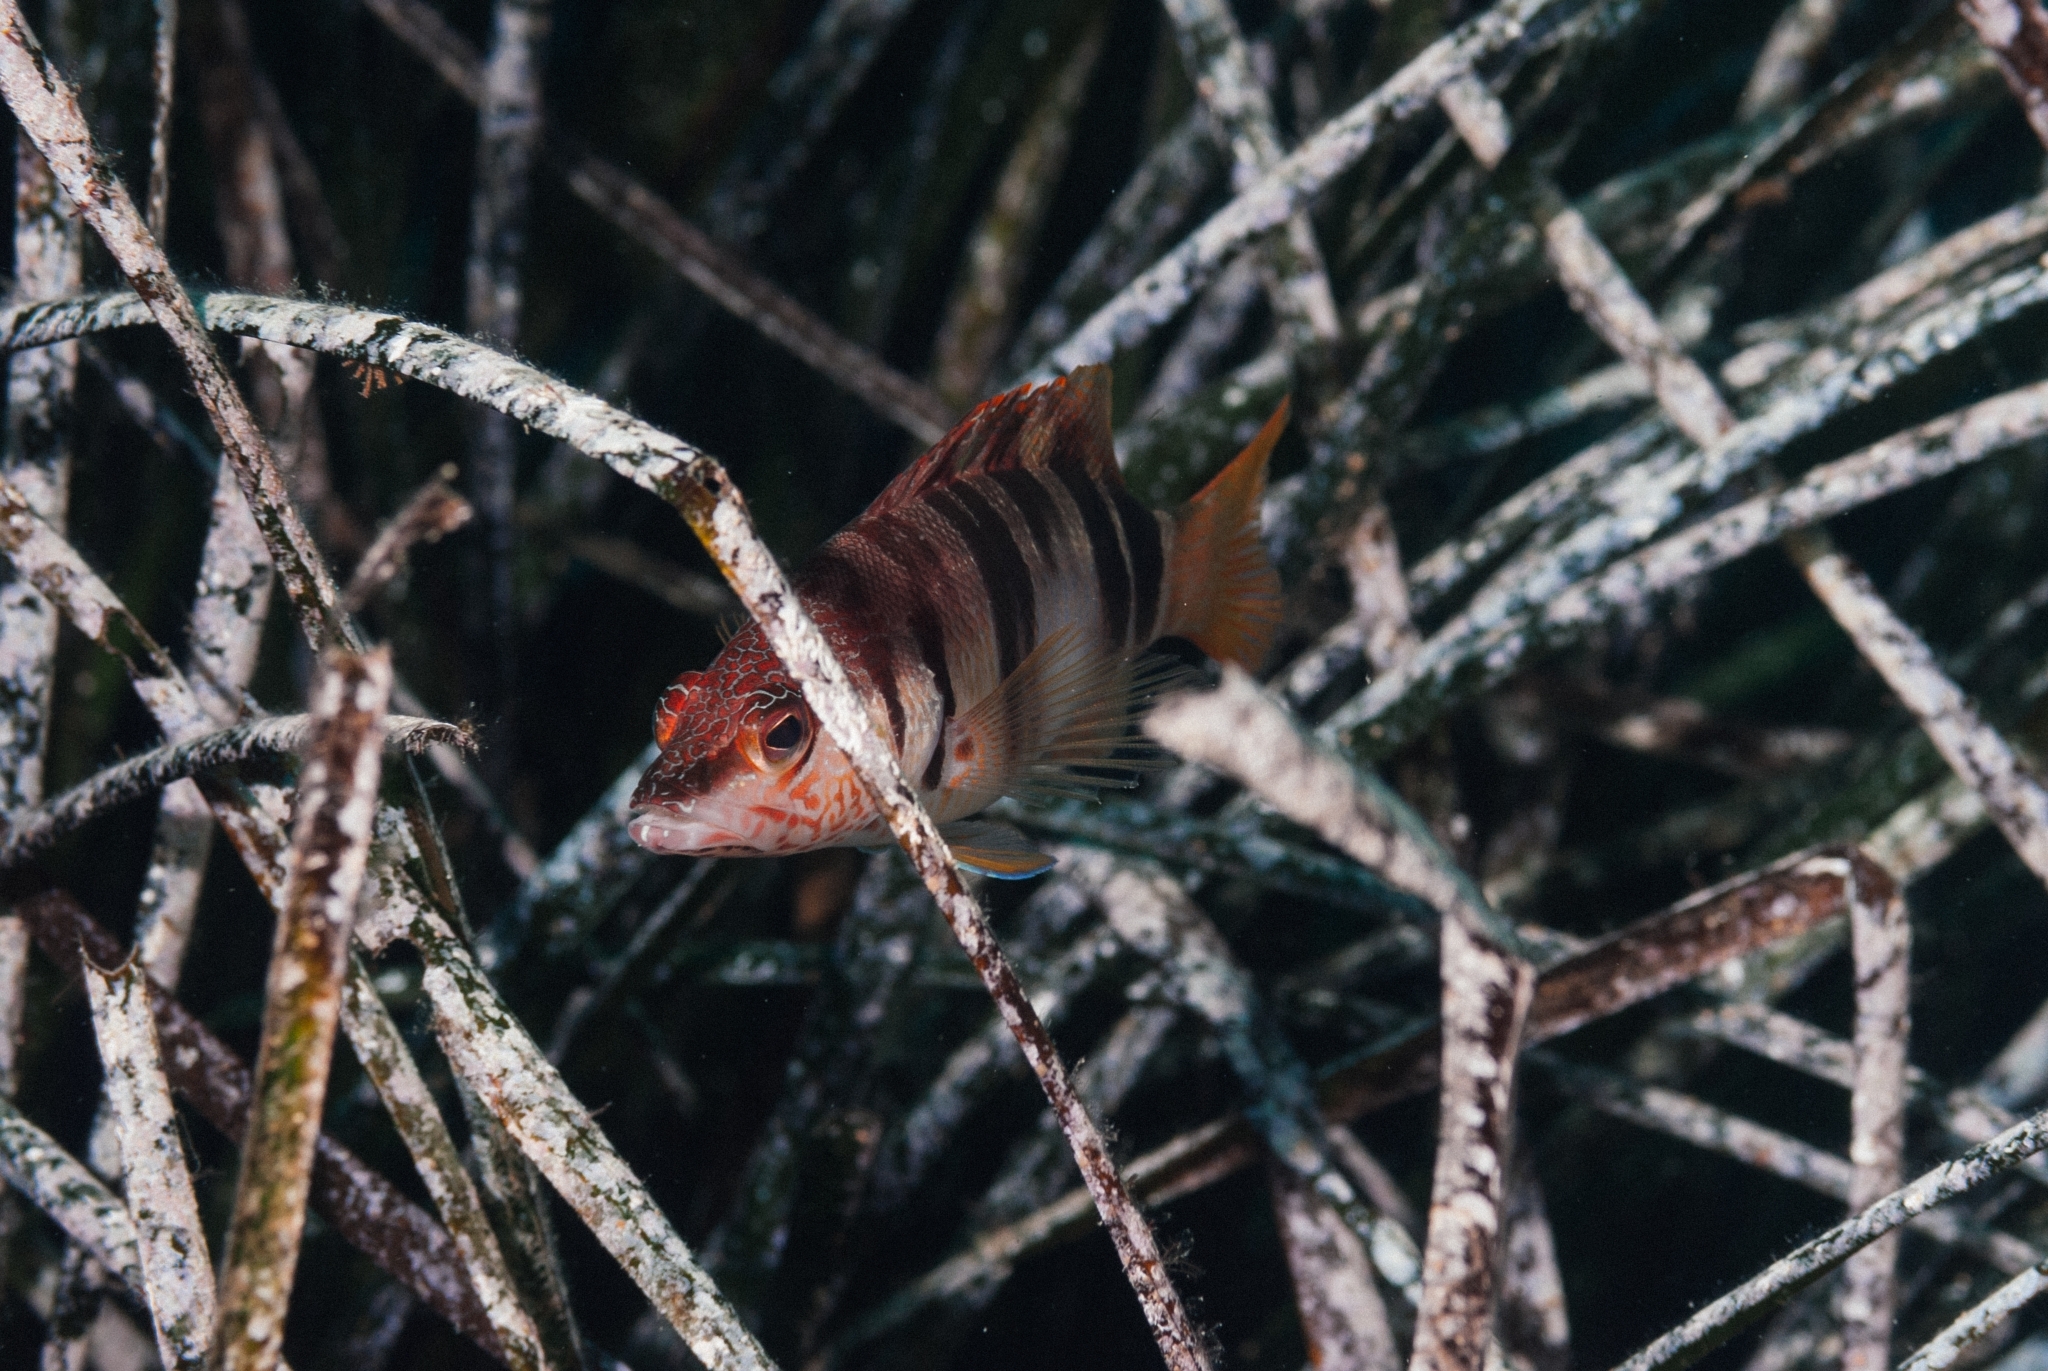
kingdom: Animalia
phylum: Chordata
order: Perciformes
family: Serranidae
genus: Serranus
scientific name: Serranus scriba
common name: Painted comber
